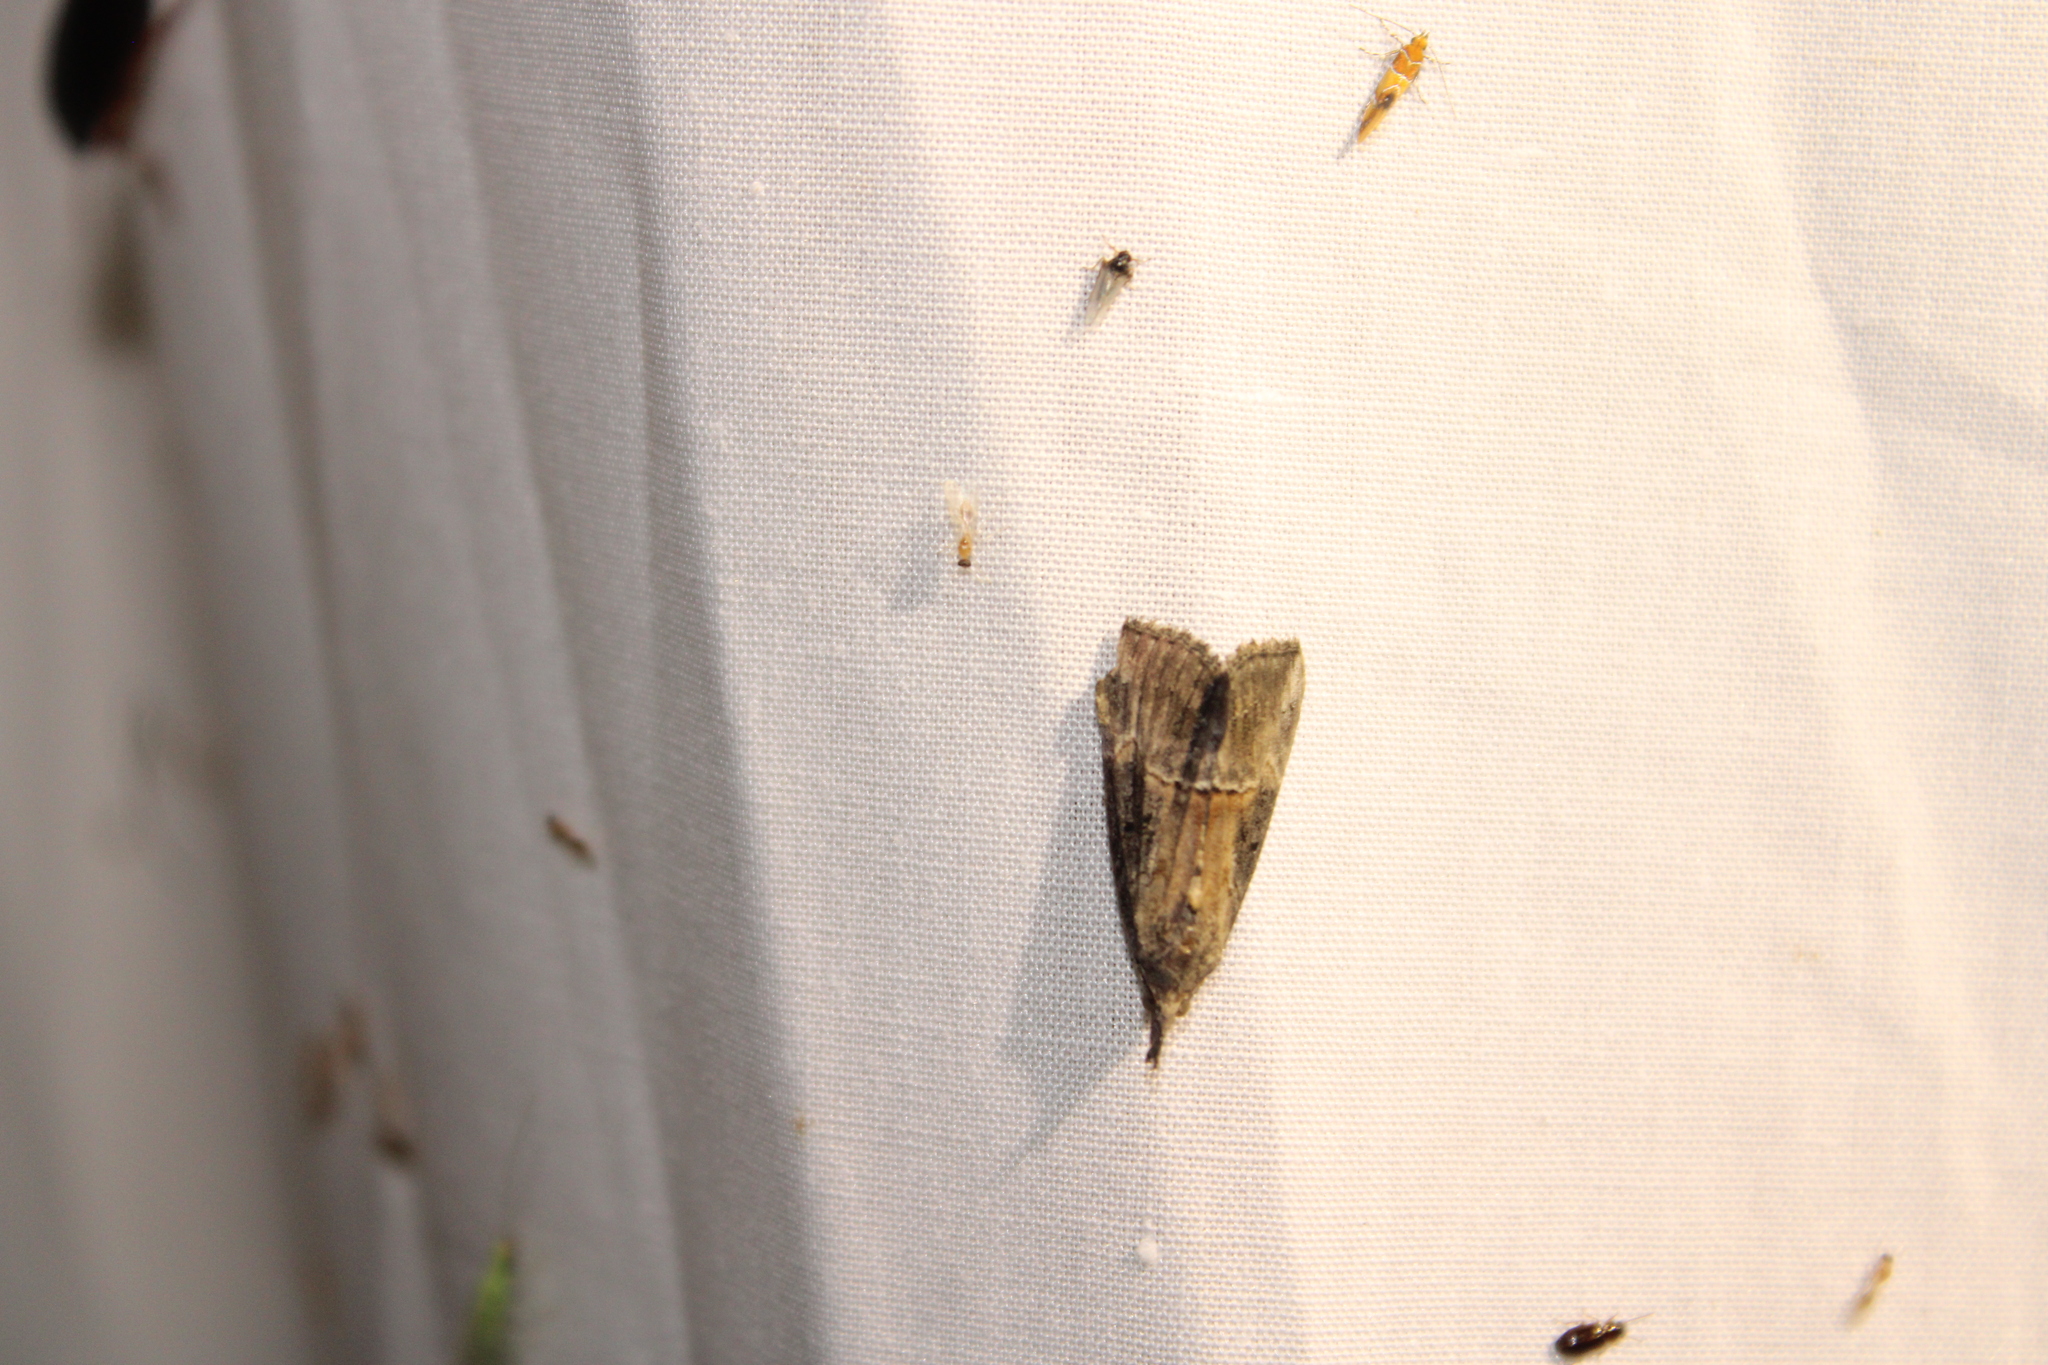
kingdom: Animalia
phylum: Arthropoda
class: Insecta
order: Lepidoptera
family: Erebidae
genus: Hypena
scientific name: Hypena scabra
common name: Green cloverworm
